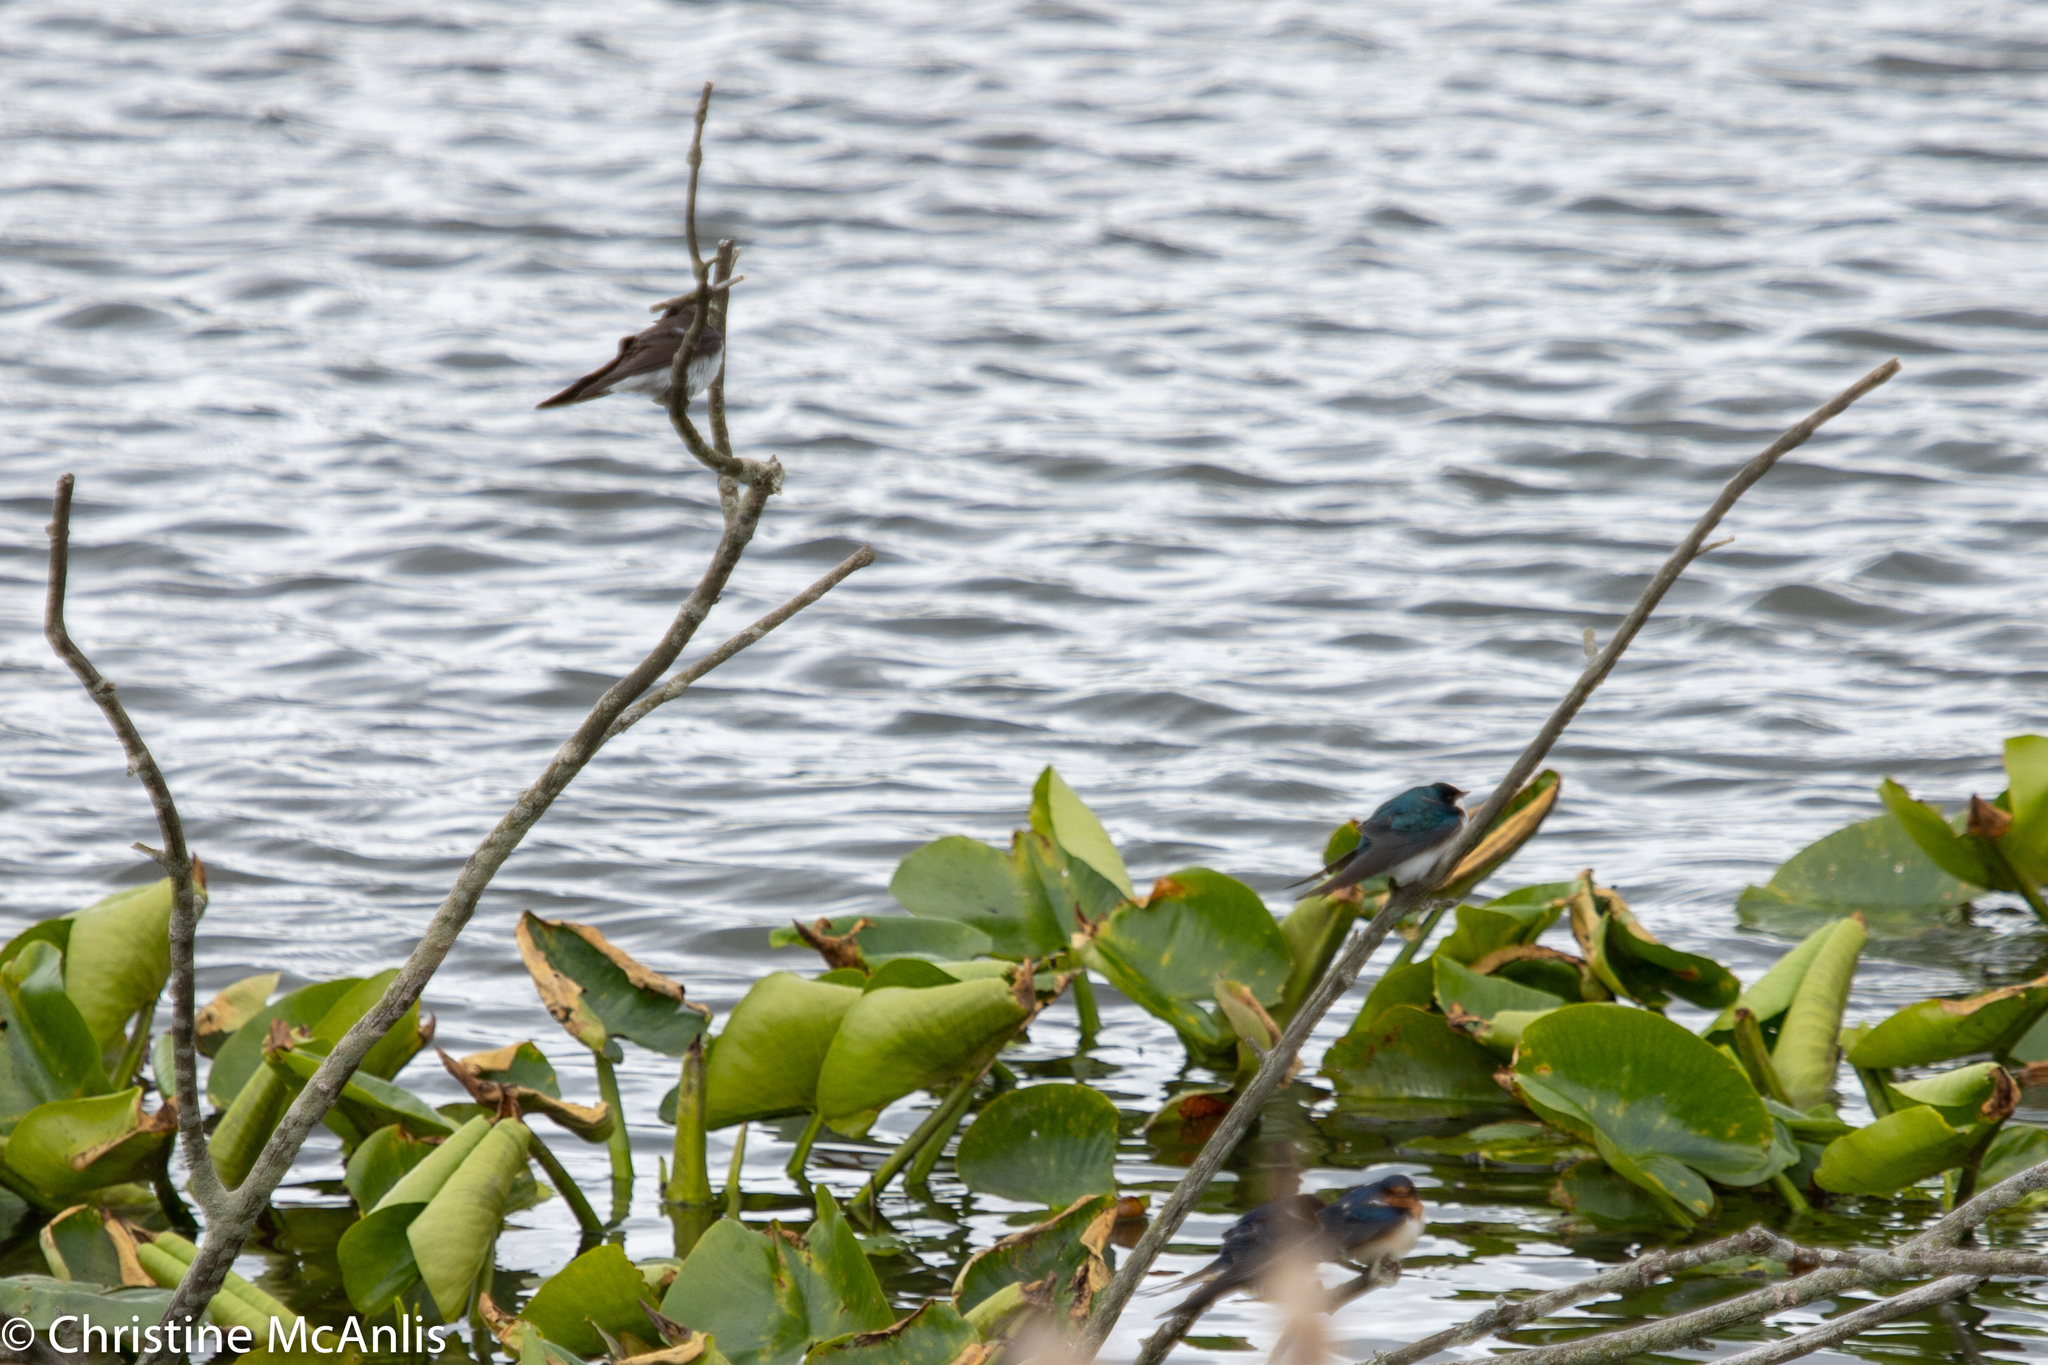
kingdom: Animalia
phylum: Chordata
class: Aves
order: Passeriformes
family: Hirundinidae
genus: Tachycineta
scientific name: Tachycineta bicolor
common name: Tree swallow
